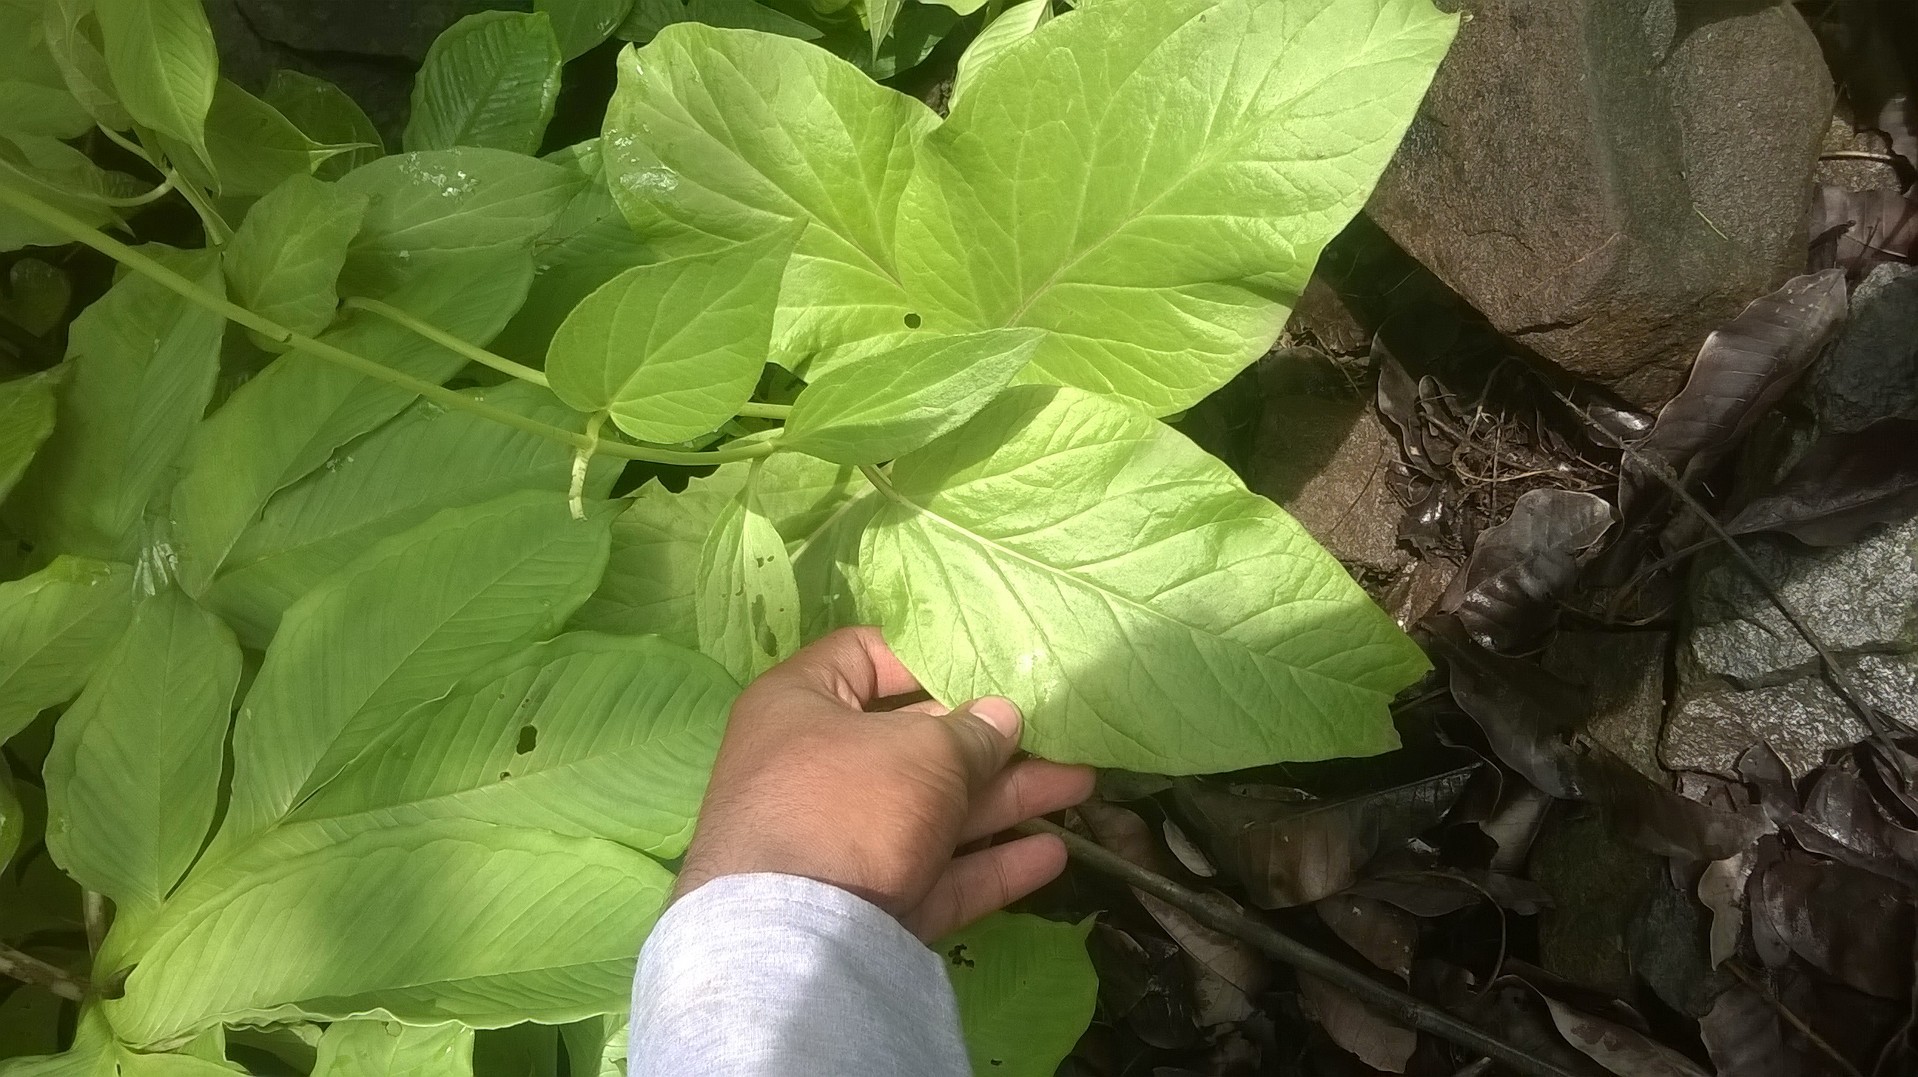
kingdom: Plantae
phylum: Tracheophyta
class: Magnoliopsida
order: Gentianales
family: Apocynaceae
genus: Ceropegia
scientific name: Ceropegia vincifolia
